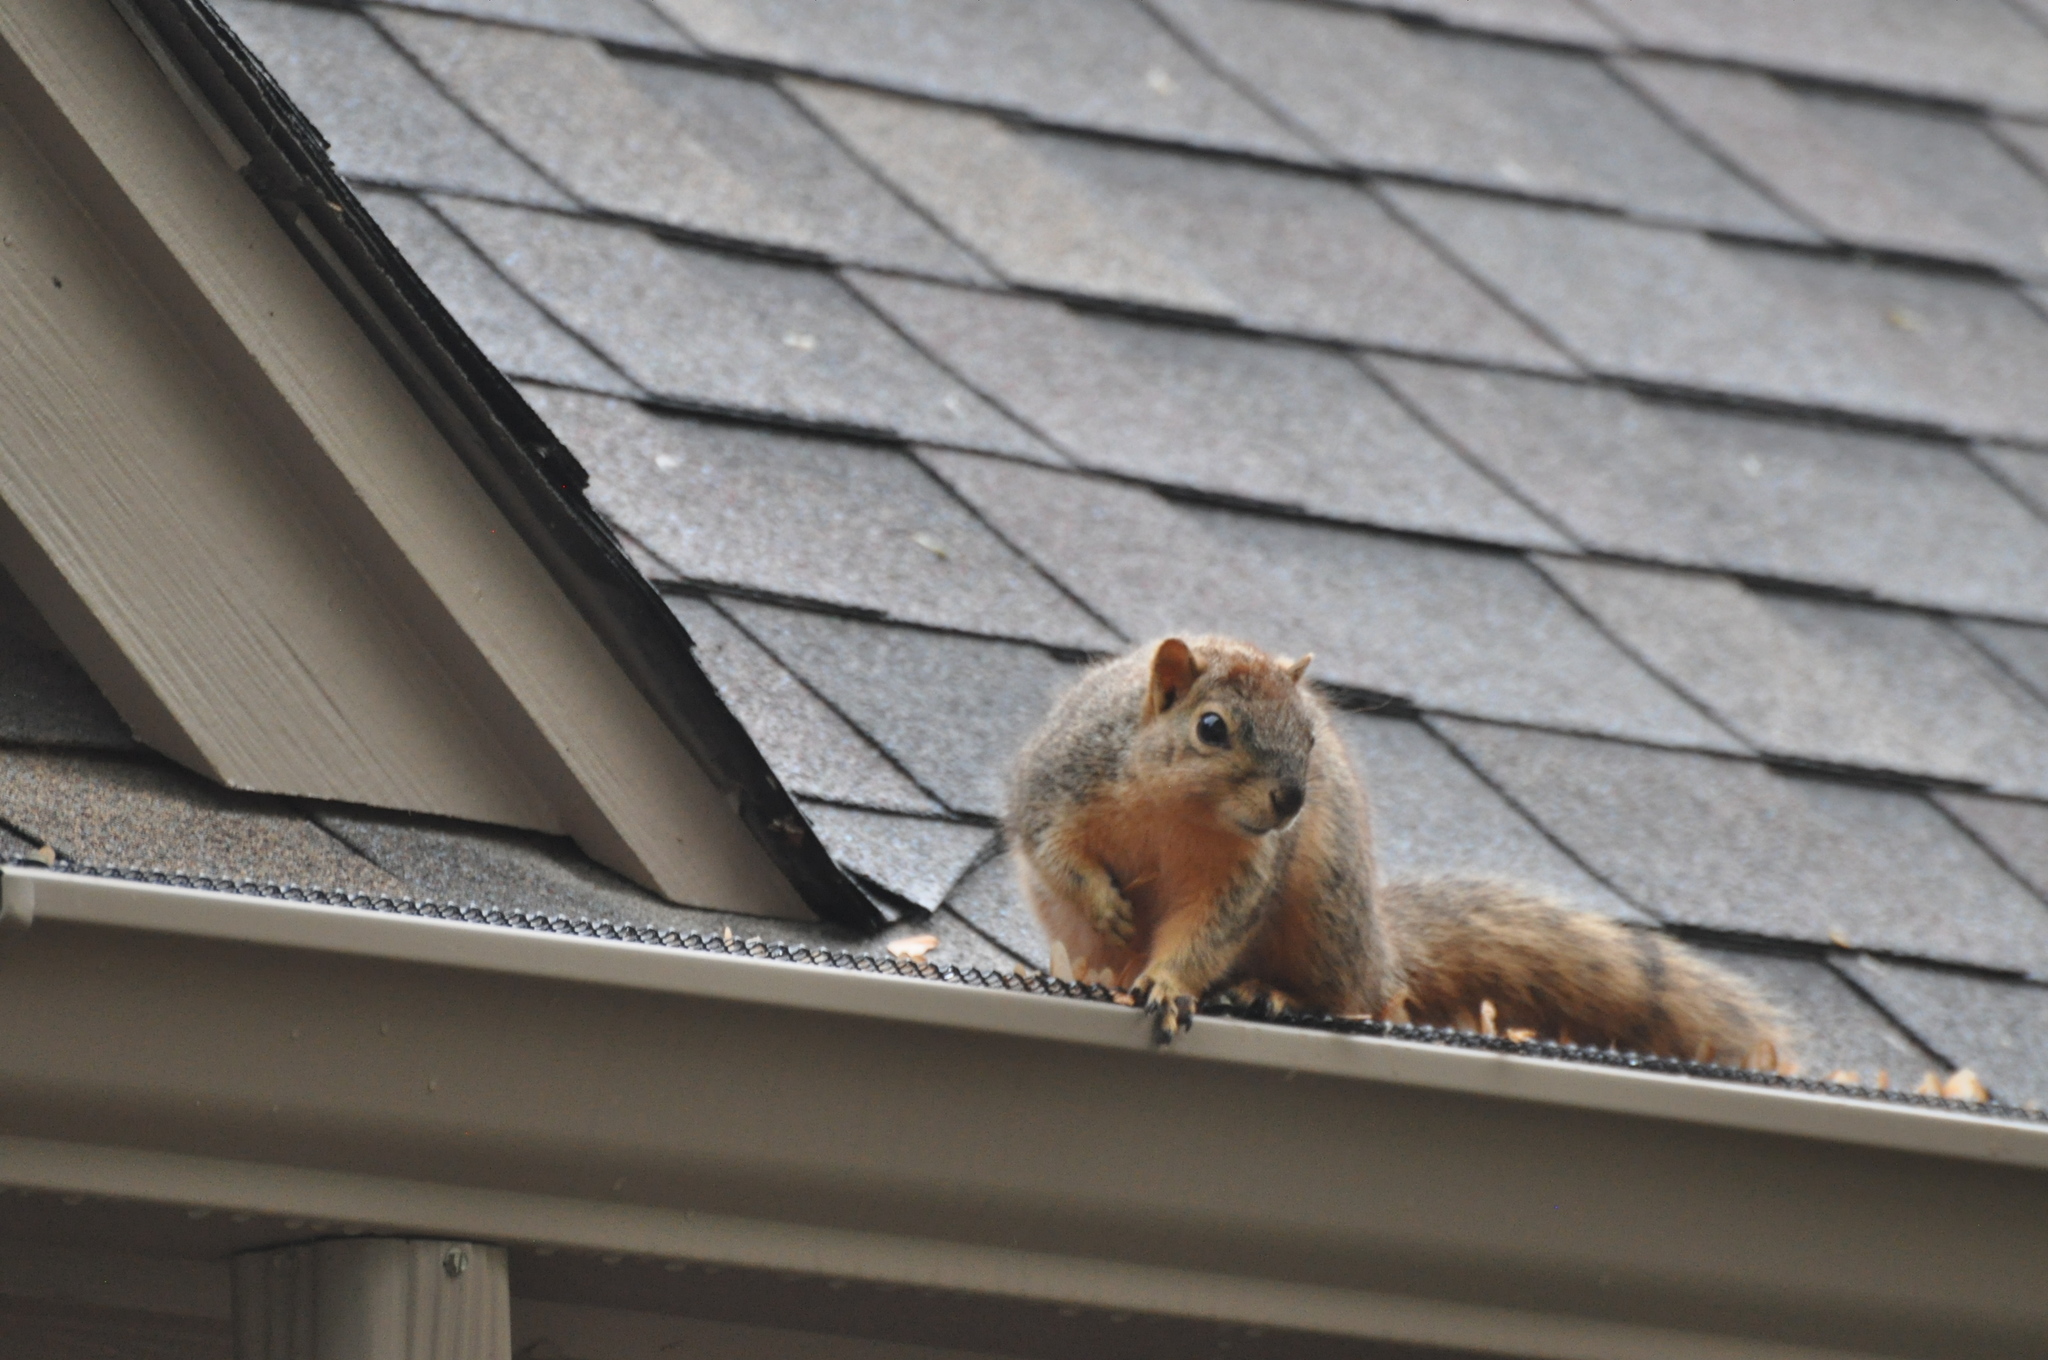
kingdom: Animalia
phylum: Chordata
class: Mammalia
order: Rodentia
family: Sciuridae
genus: Sciurus
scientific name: Sciurus niger
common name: Fox squirrel
